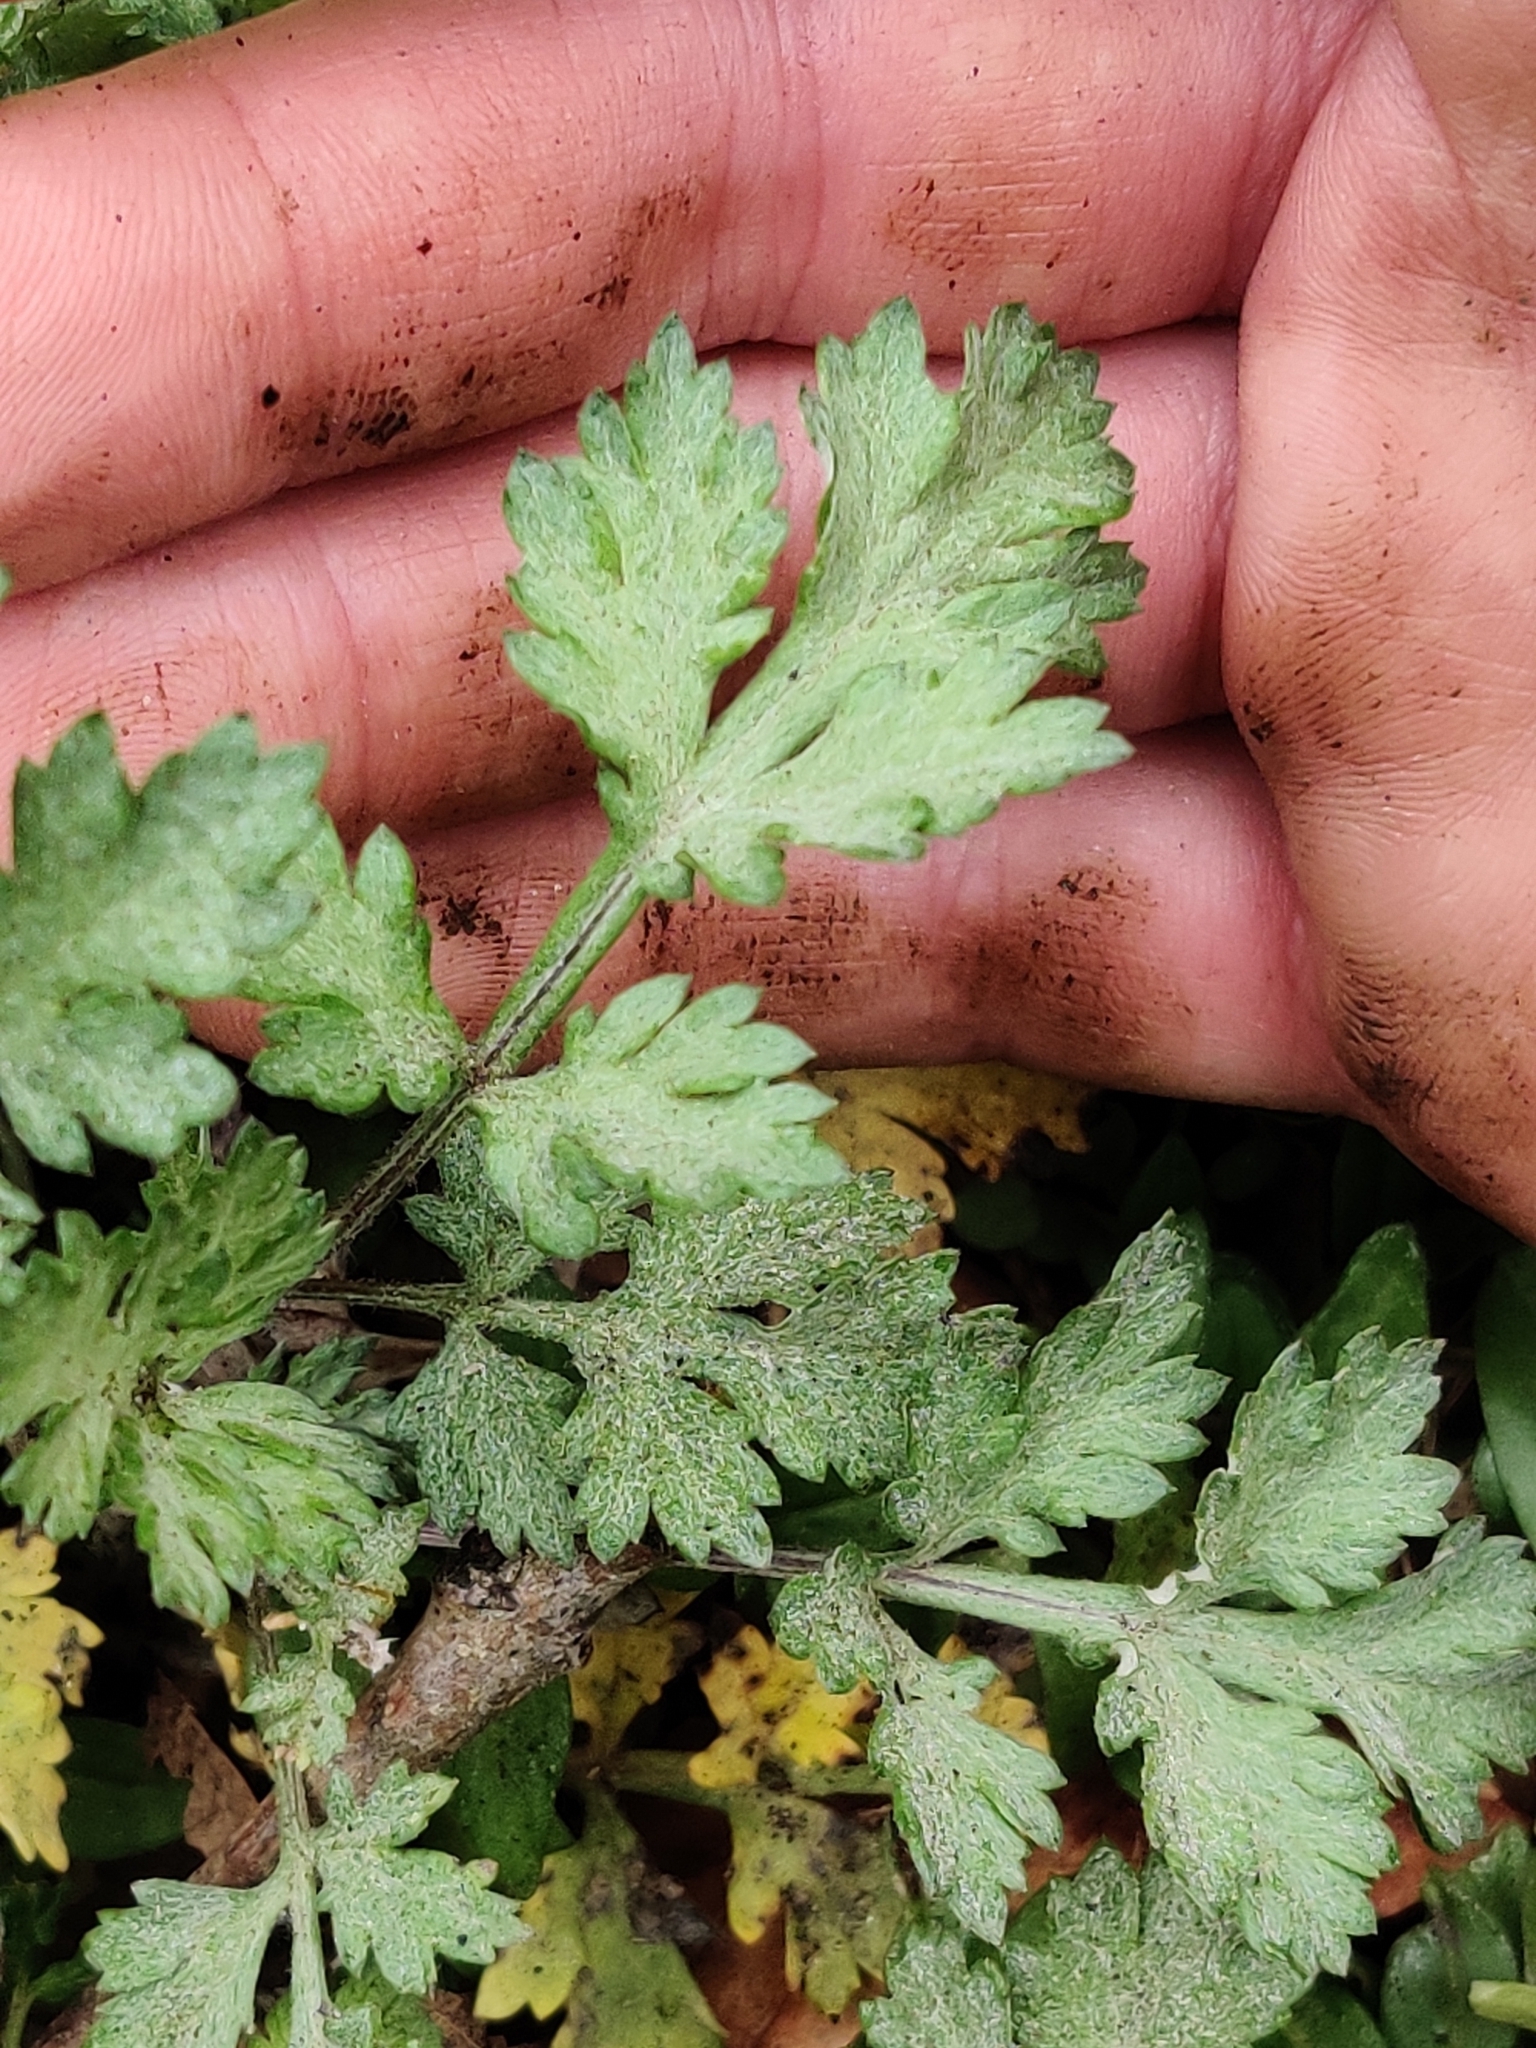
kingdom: Plantae
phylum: Tracheophyta
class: Magnoliopsida
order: Asterales
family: Asteraceae
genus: Artemisia
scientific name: Artemisia vulgaris
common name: Mugwort
